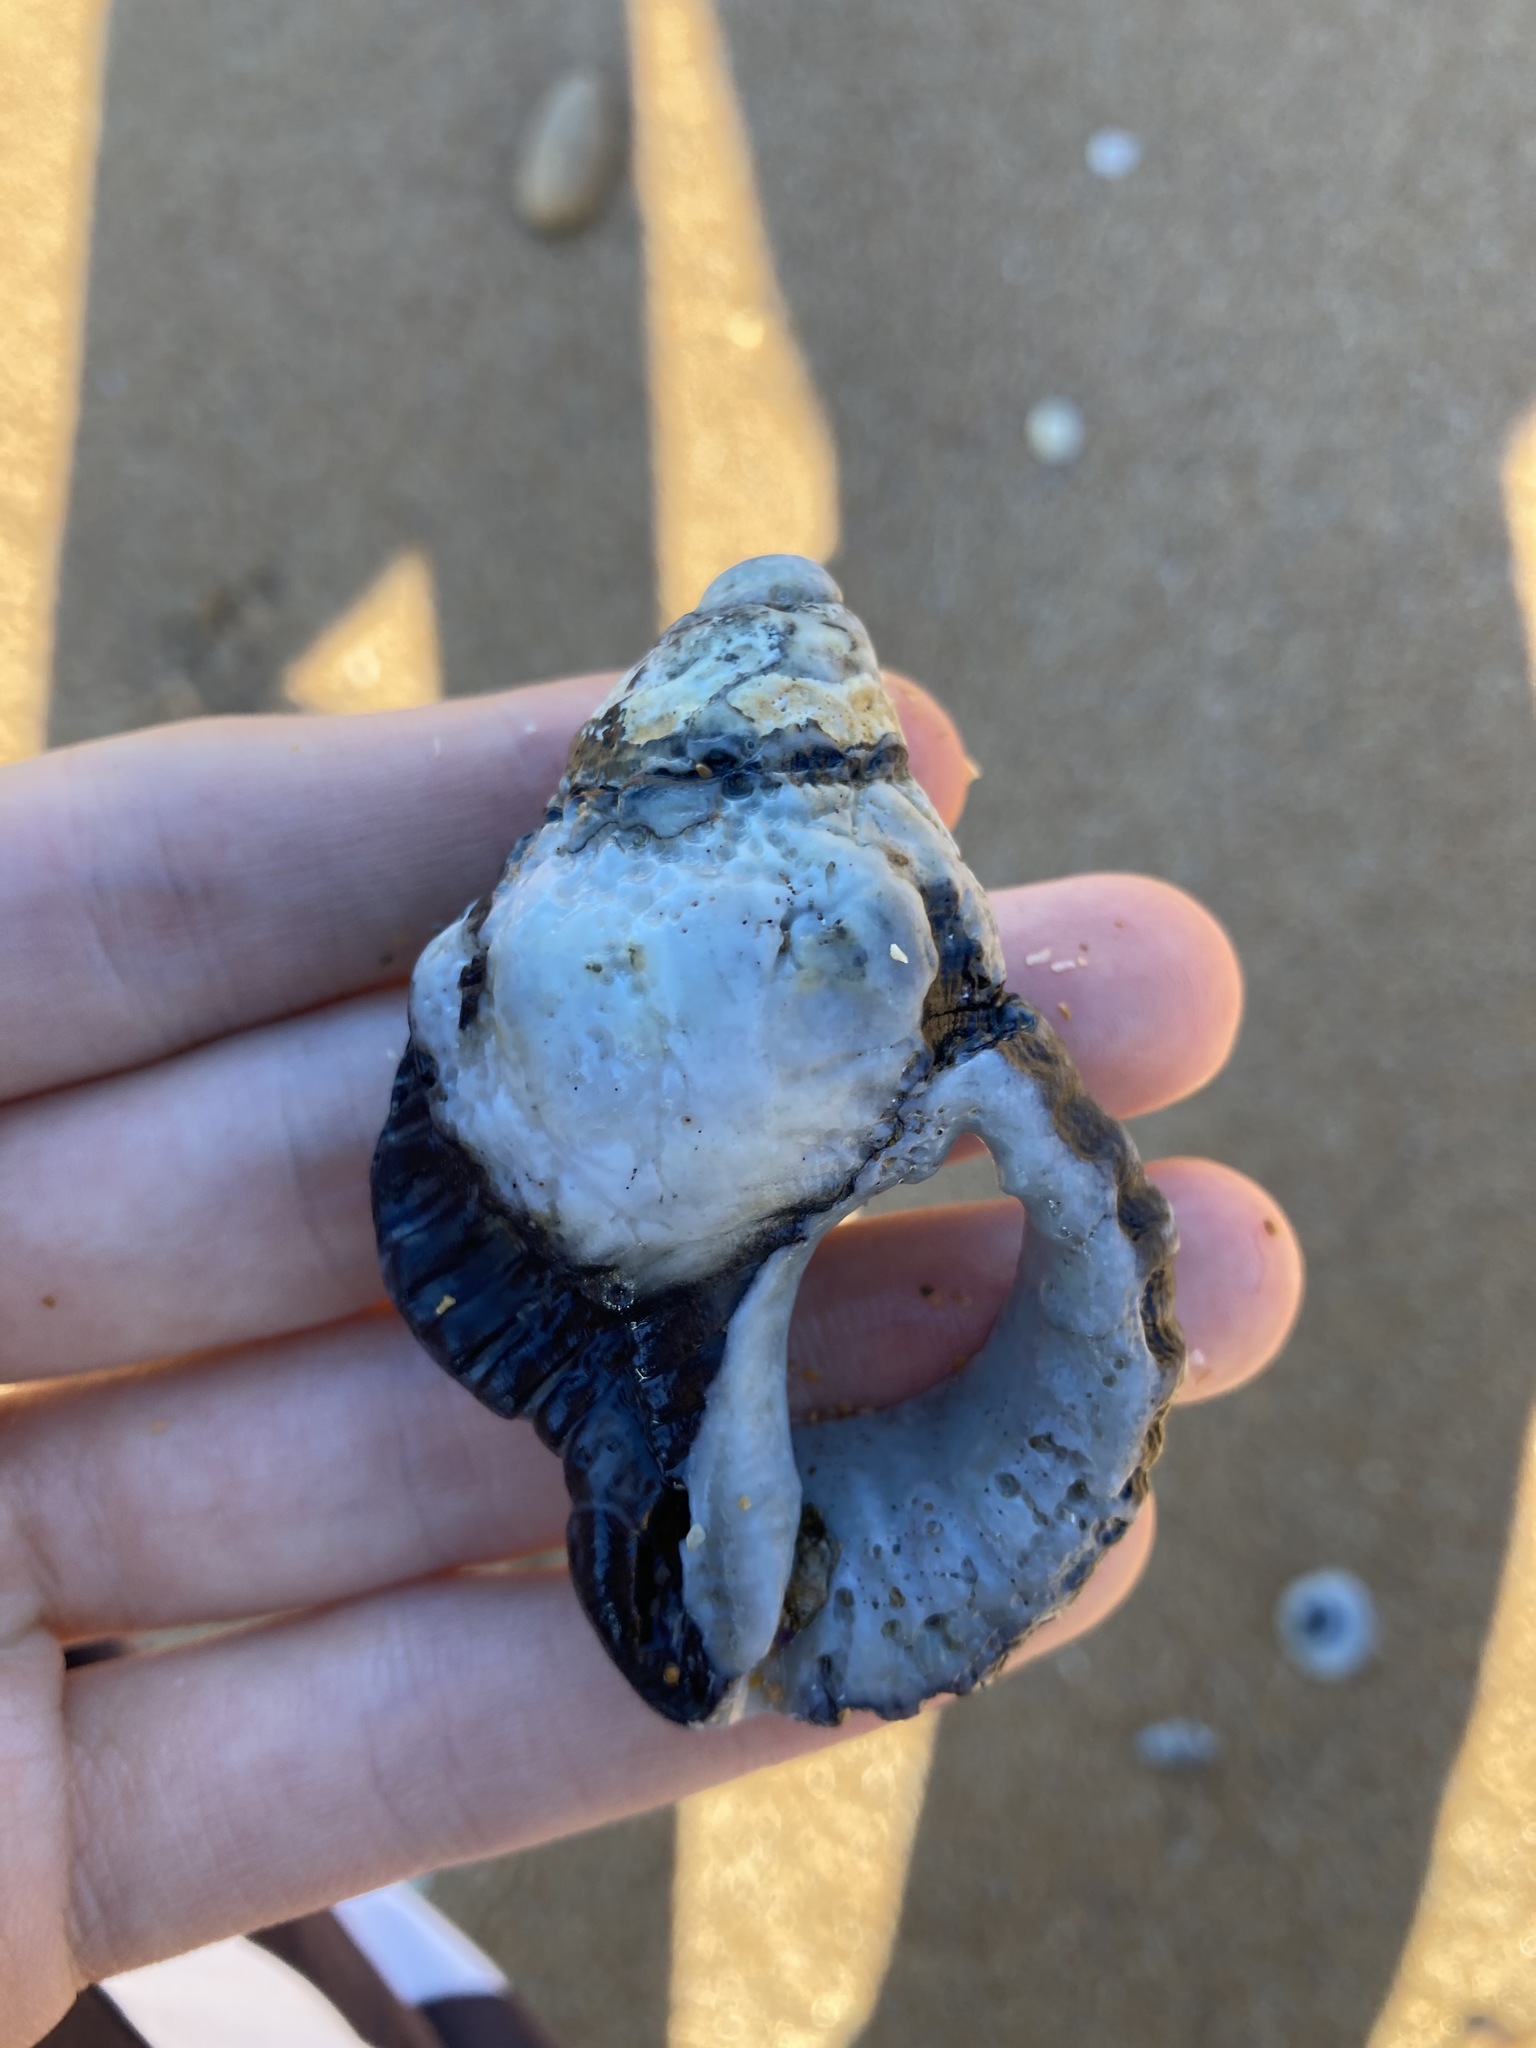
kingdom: Animalia
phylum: Mollusca
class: Gastropoda
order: Littorinimorpha
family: Cymatiidae
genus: Cabestana
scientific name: Cabestana spengleri
